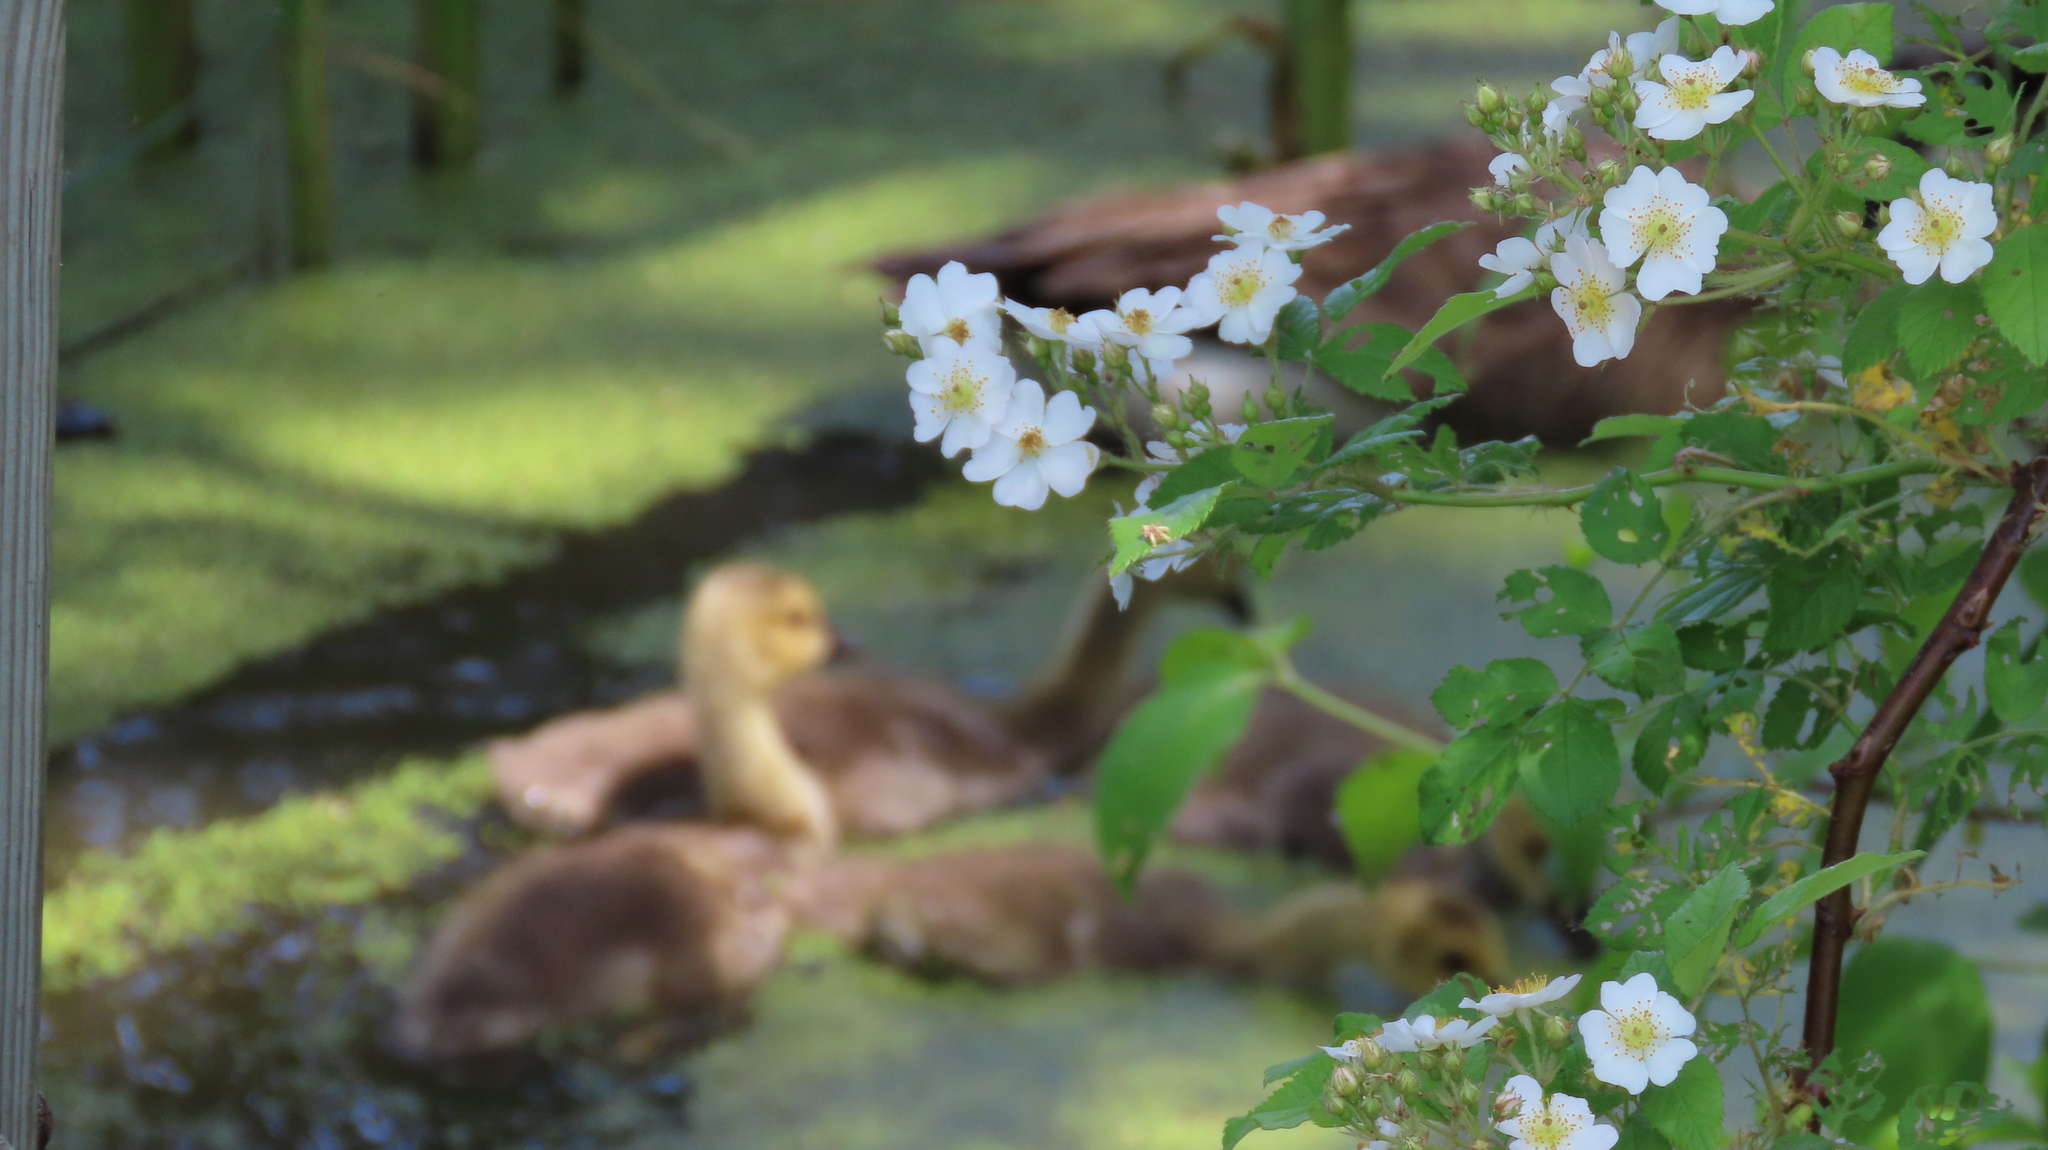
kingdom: Plantae
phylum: Tracheophyta
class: Magnoliopsida
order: Rosales
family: Rosaceae
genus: Rosa
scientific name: Rosa multiflora
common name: Multiflora rose
